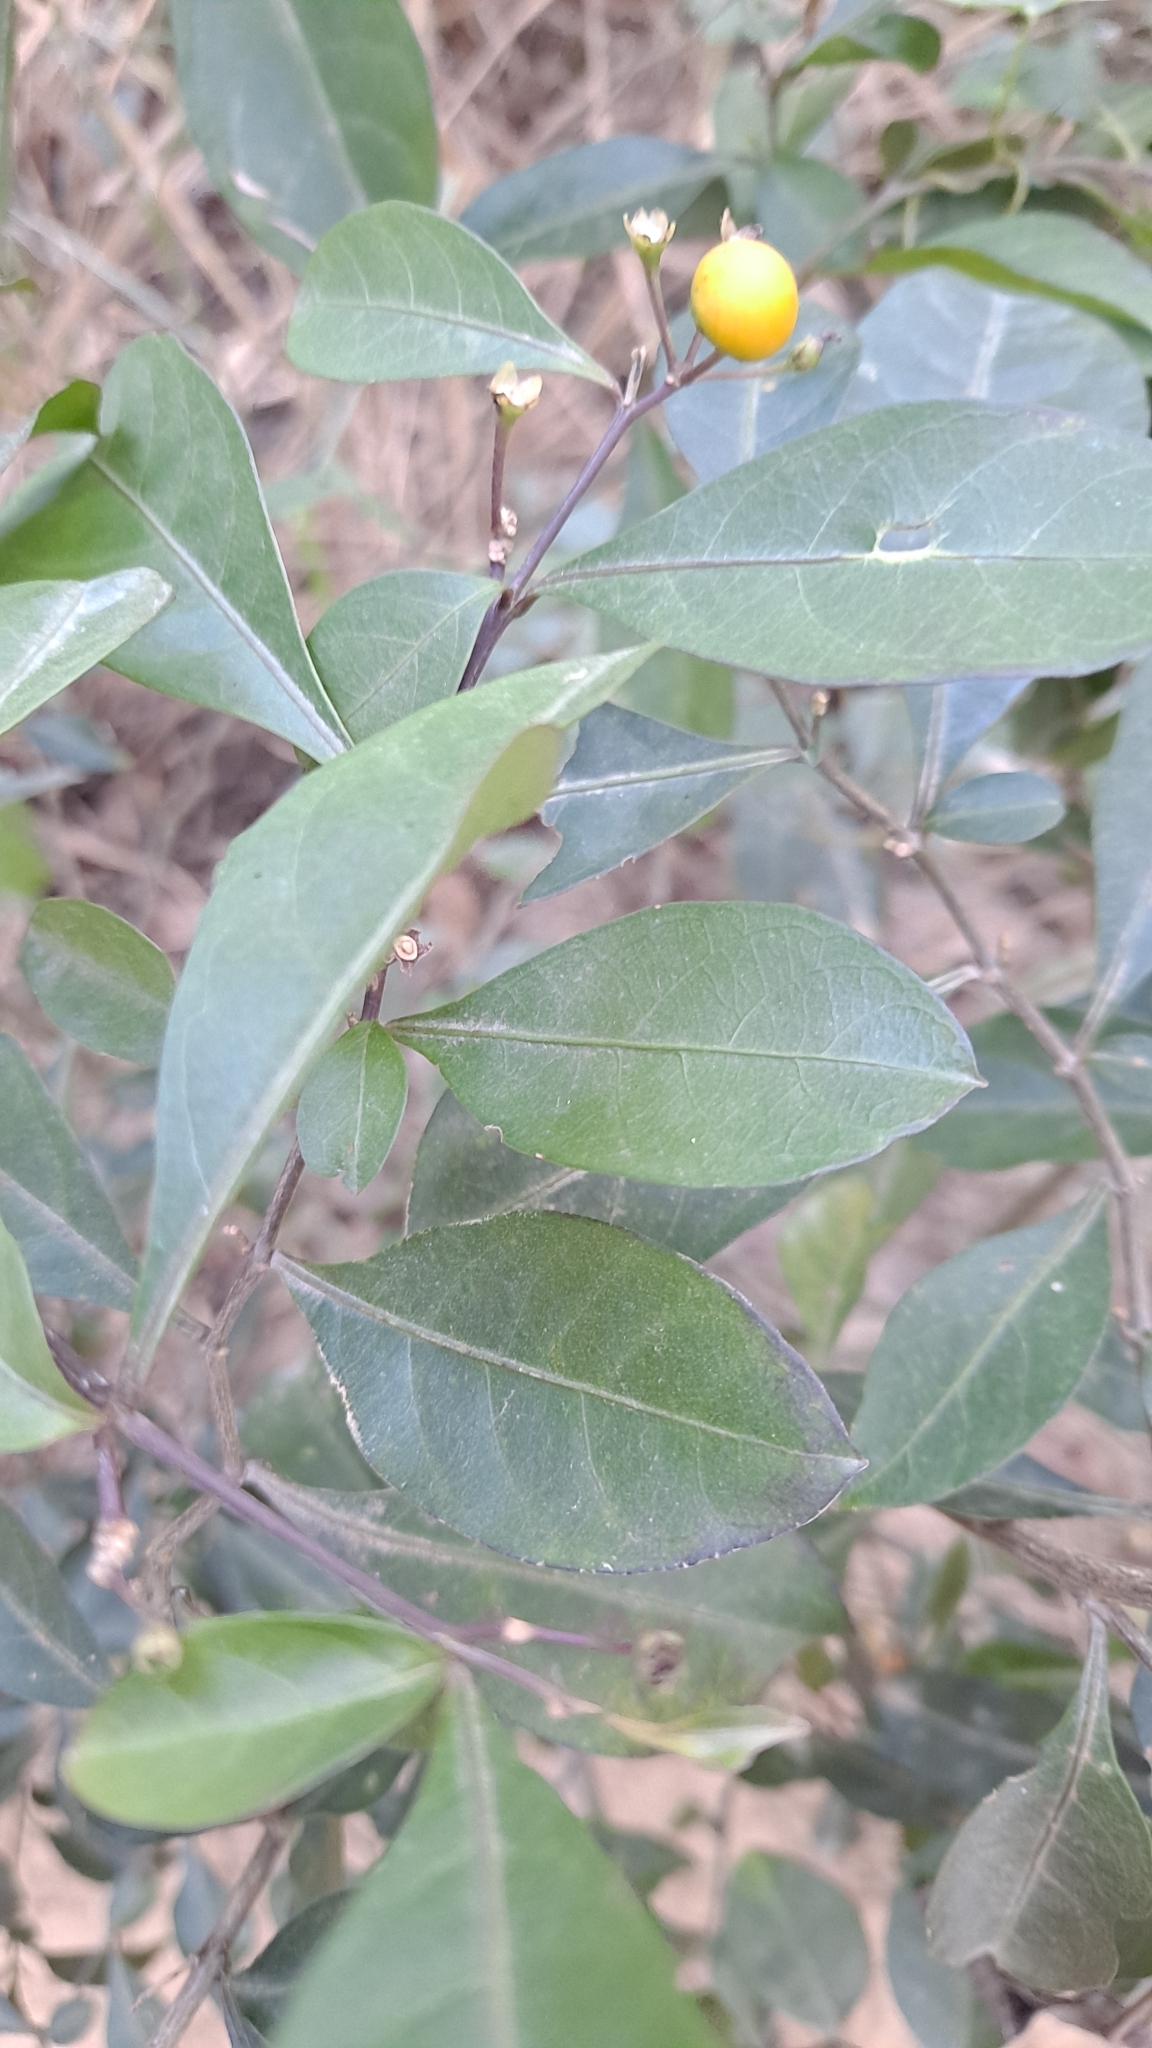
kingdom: Plantae
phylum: Tracheophyta
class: Magnoliopsida
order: Solanales
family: Solanaceae
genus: Solanum
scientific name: Solanum diphyllum
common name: Twoleaf nightshade
